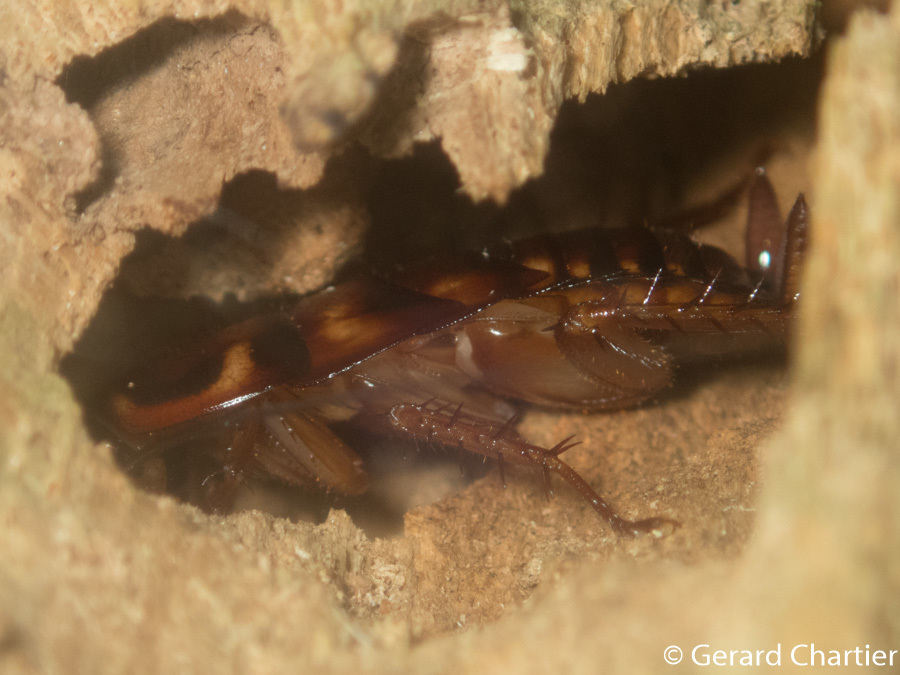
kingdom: Animalia
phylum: Arthropoda
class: Insecta
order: Blattodea
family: Blattidae
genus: Periplaneta
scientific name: Periplaneta australasiae
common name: Australian cockroach
